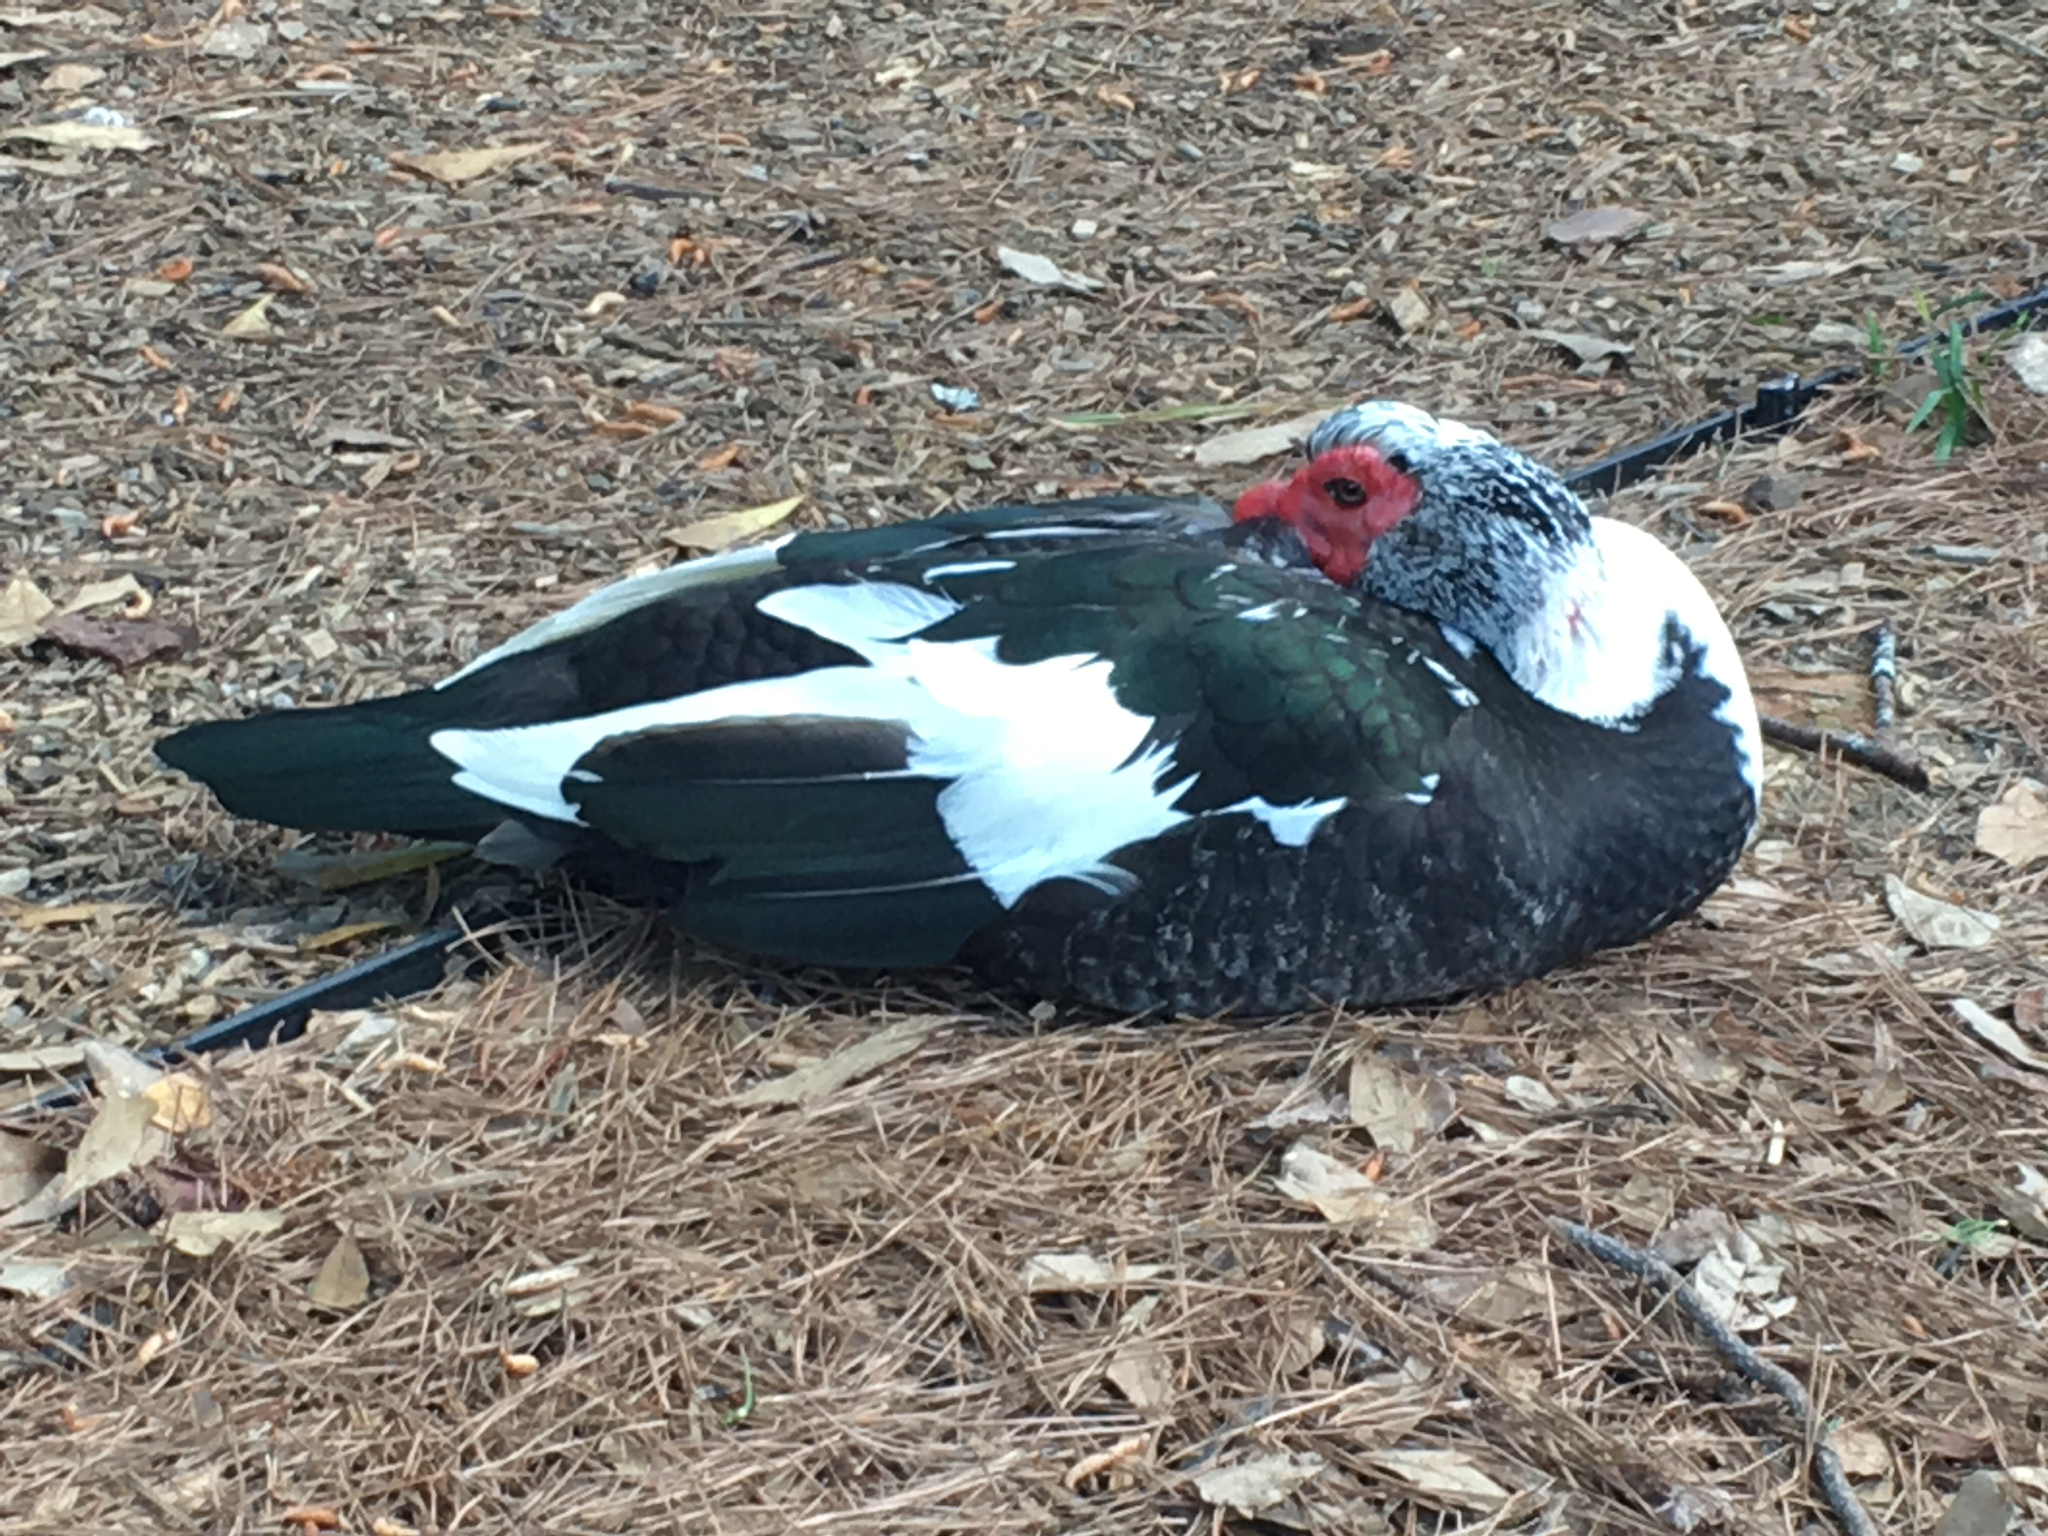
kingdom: Animalia
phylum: Chordata
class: Aves
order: Anseriformes
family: Anatidae
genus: Cairina
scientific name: Cairina moschata
